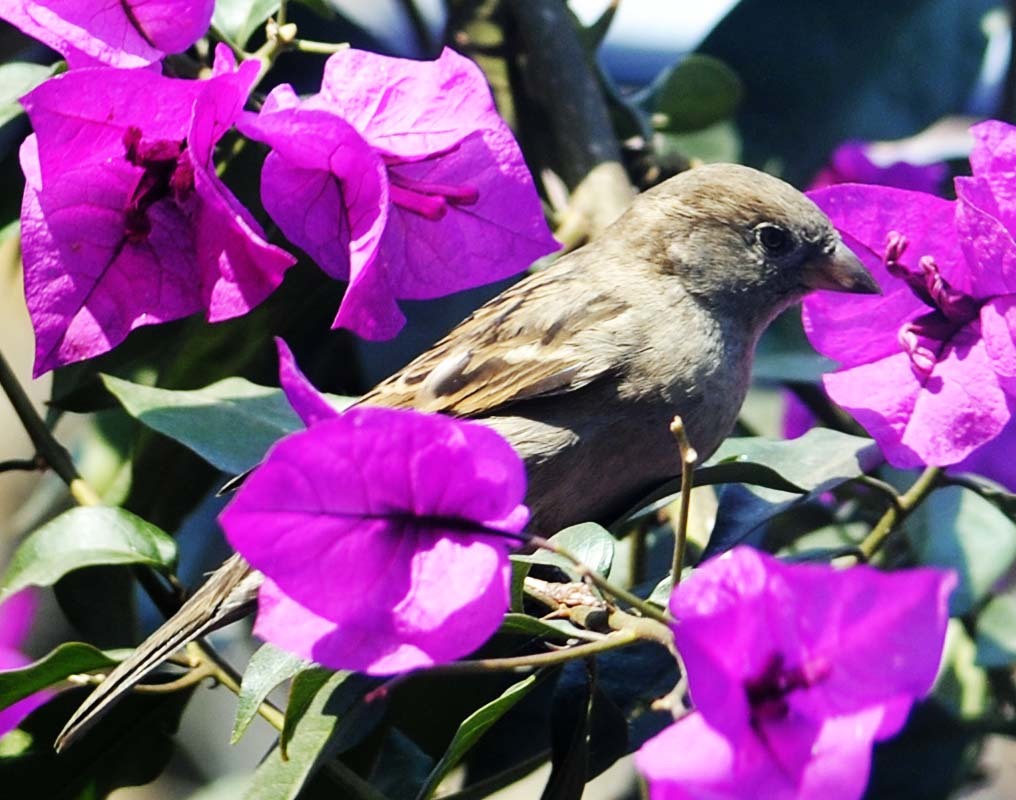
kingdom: Animalia
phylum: Chordata
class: Aves
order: Passeriformes
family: Passeridae
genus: Passer
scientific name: Passer domesticus
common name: House sparrow
